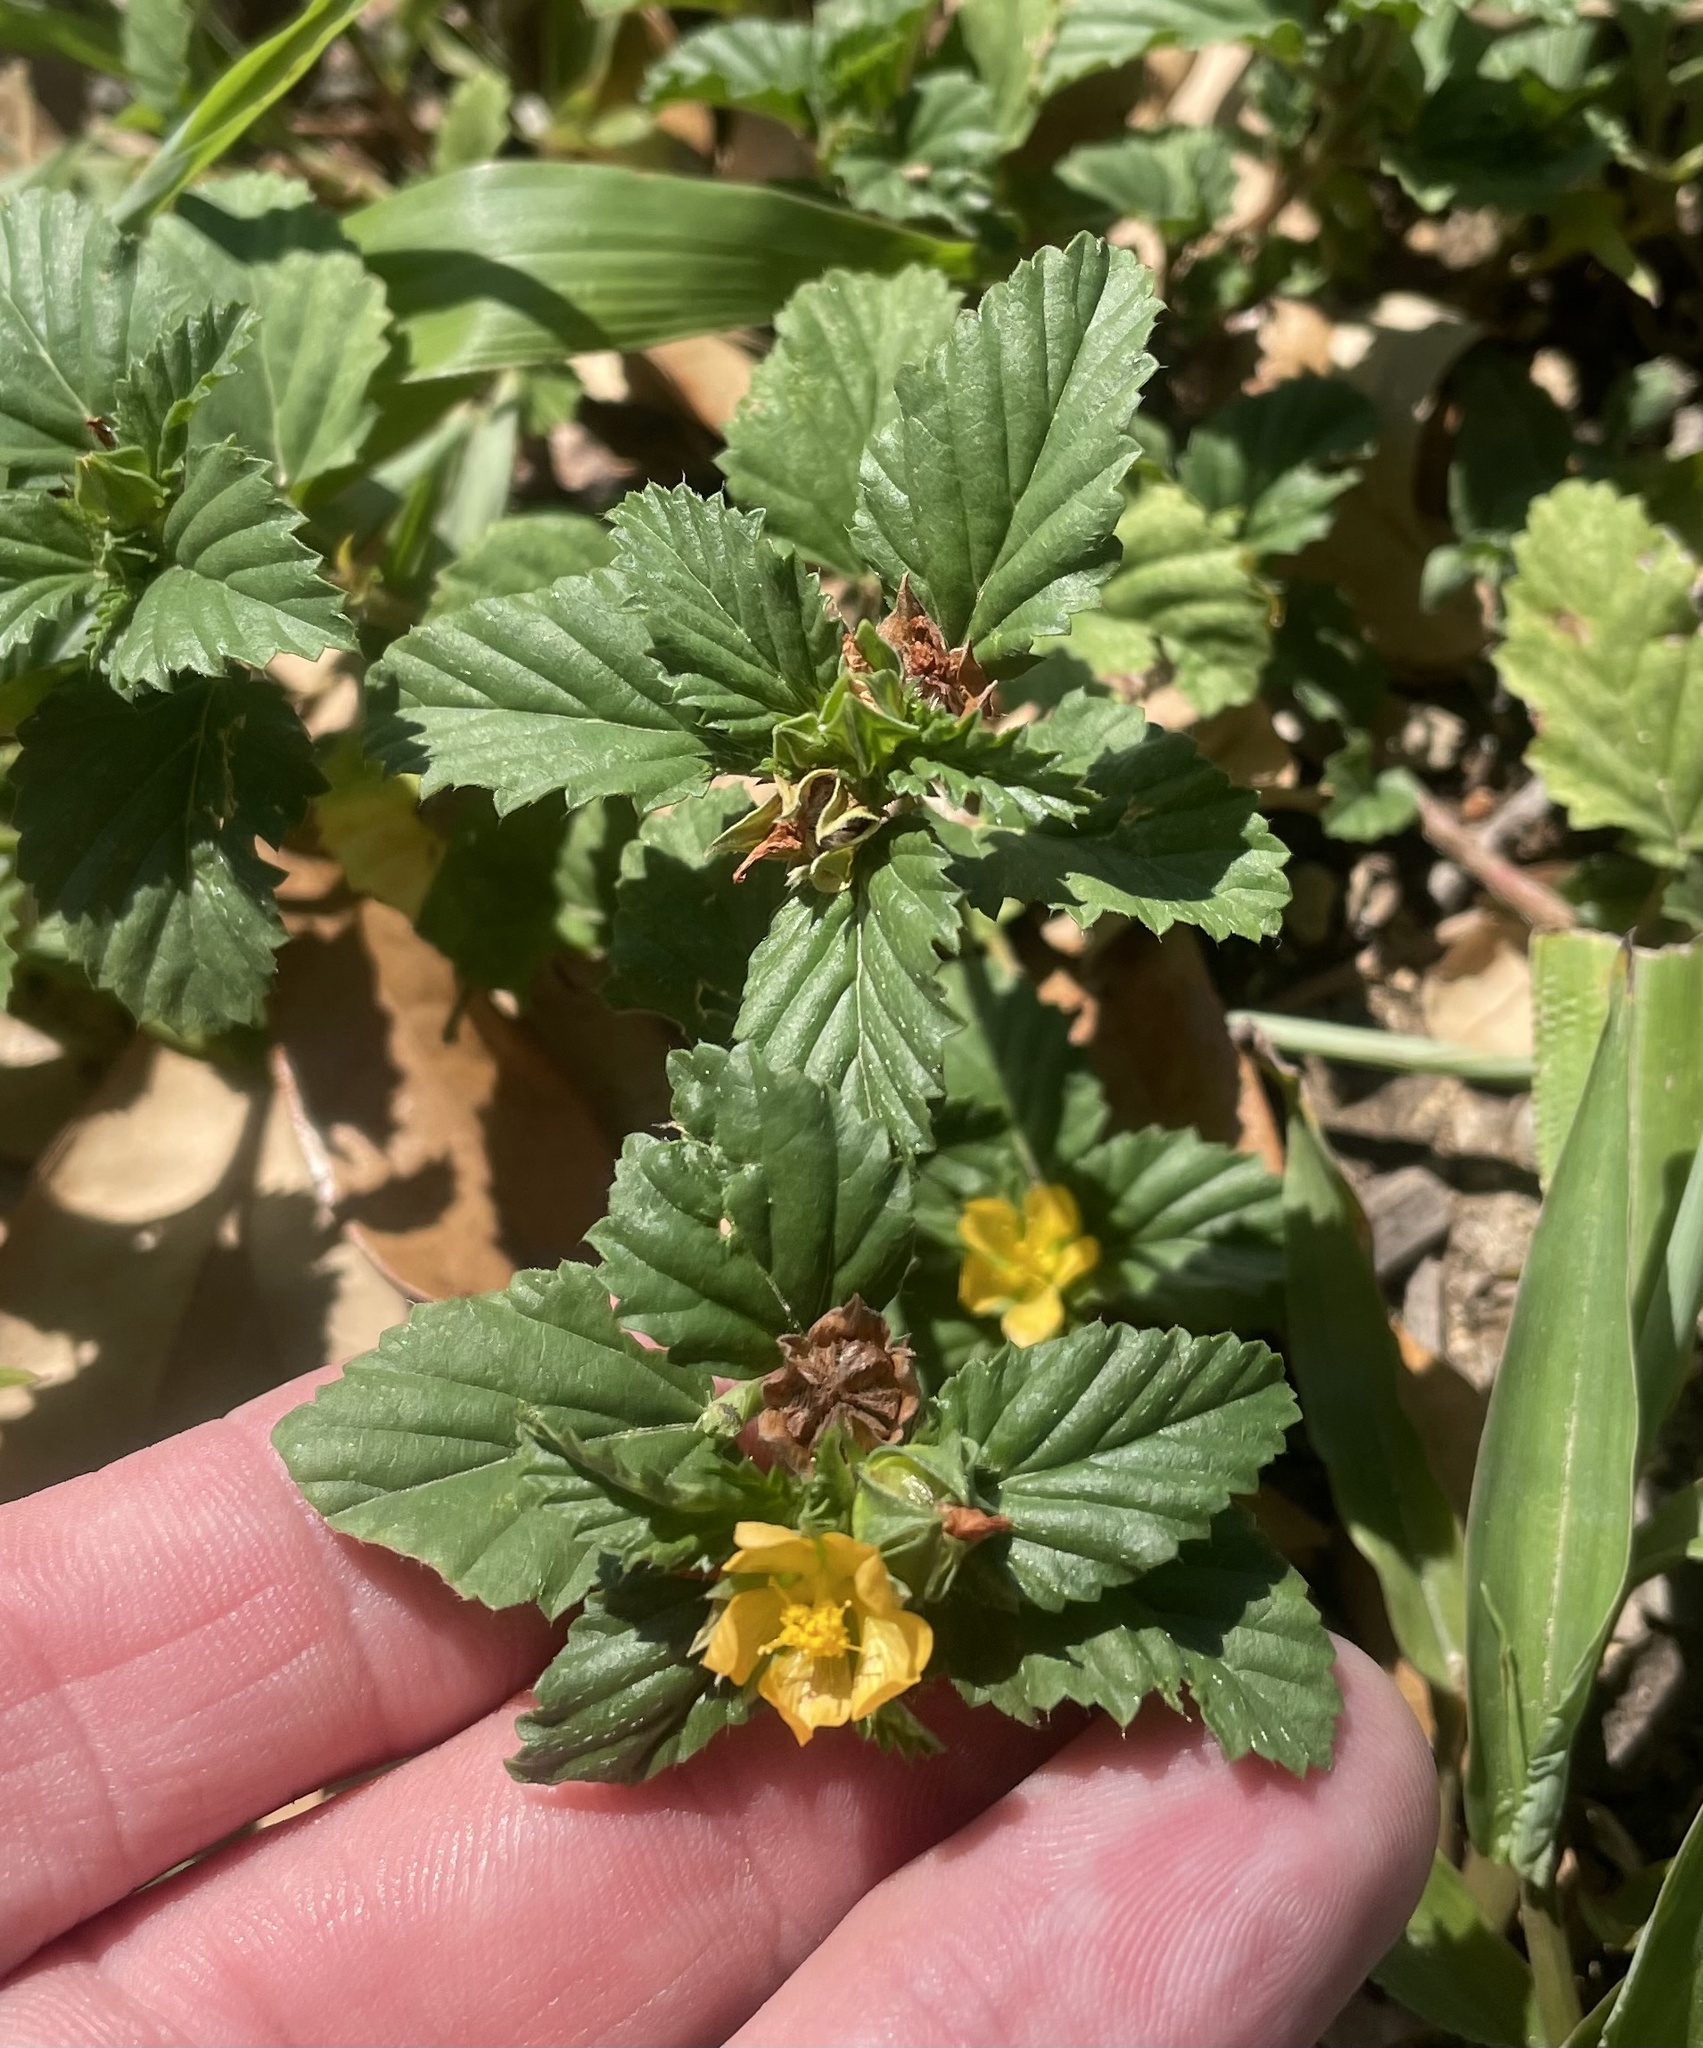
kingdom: Plantae
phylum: Tracheophyta
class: Magnoliopsida
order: Malvales
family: Malvaceae
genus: Malvastrum
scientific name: Malvastrum coromandelianum
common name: Threelobe false mallow
